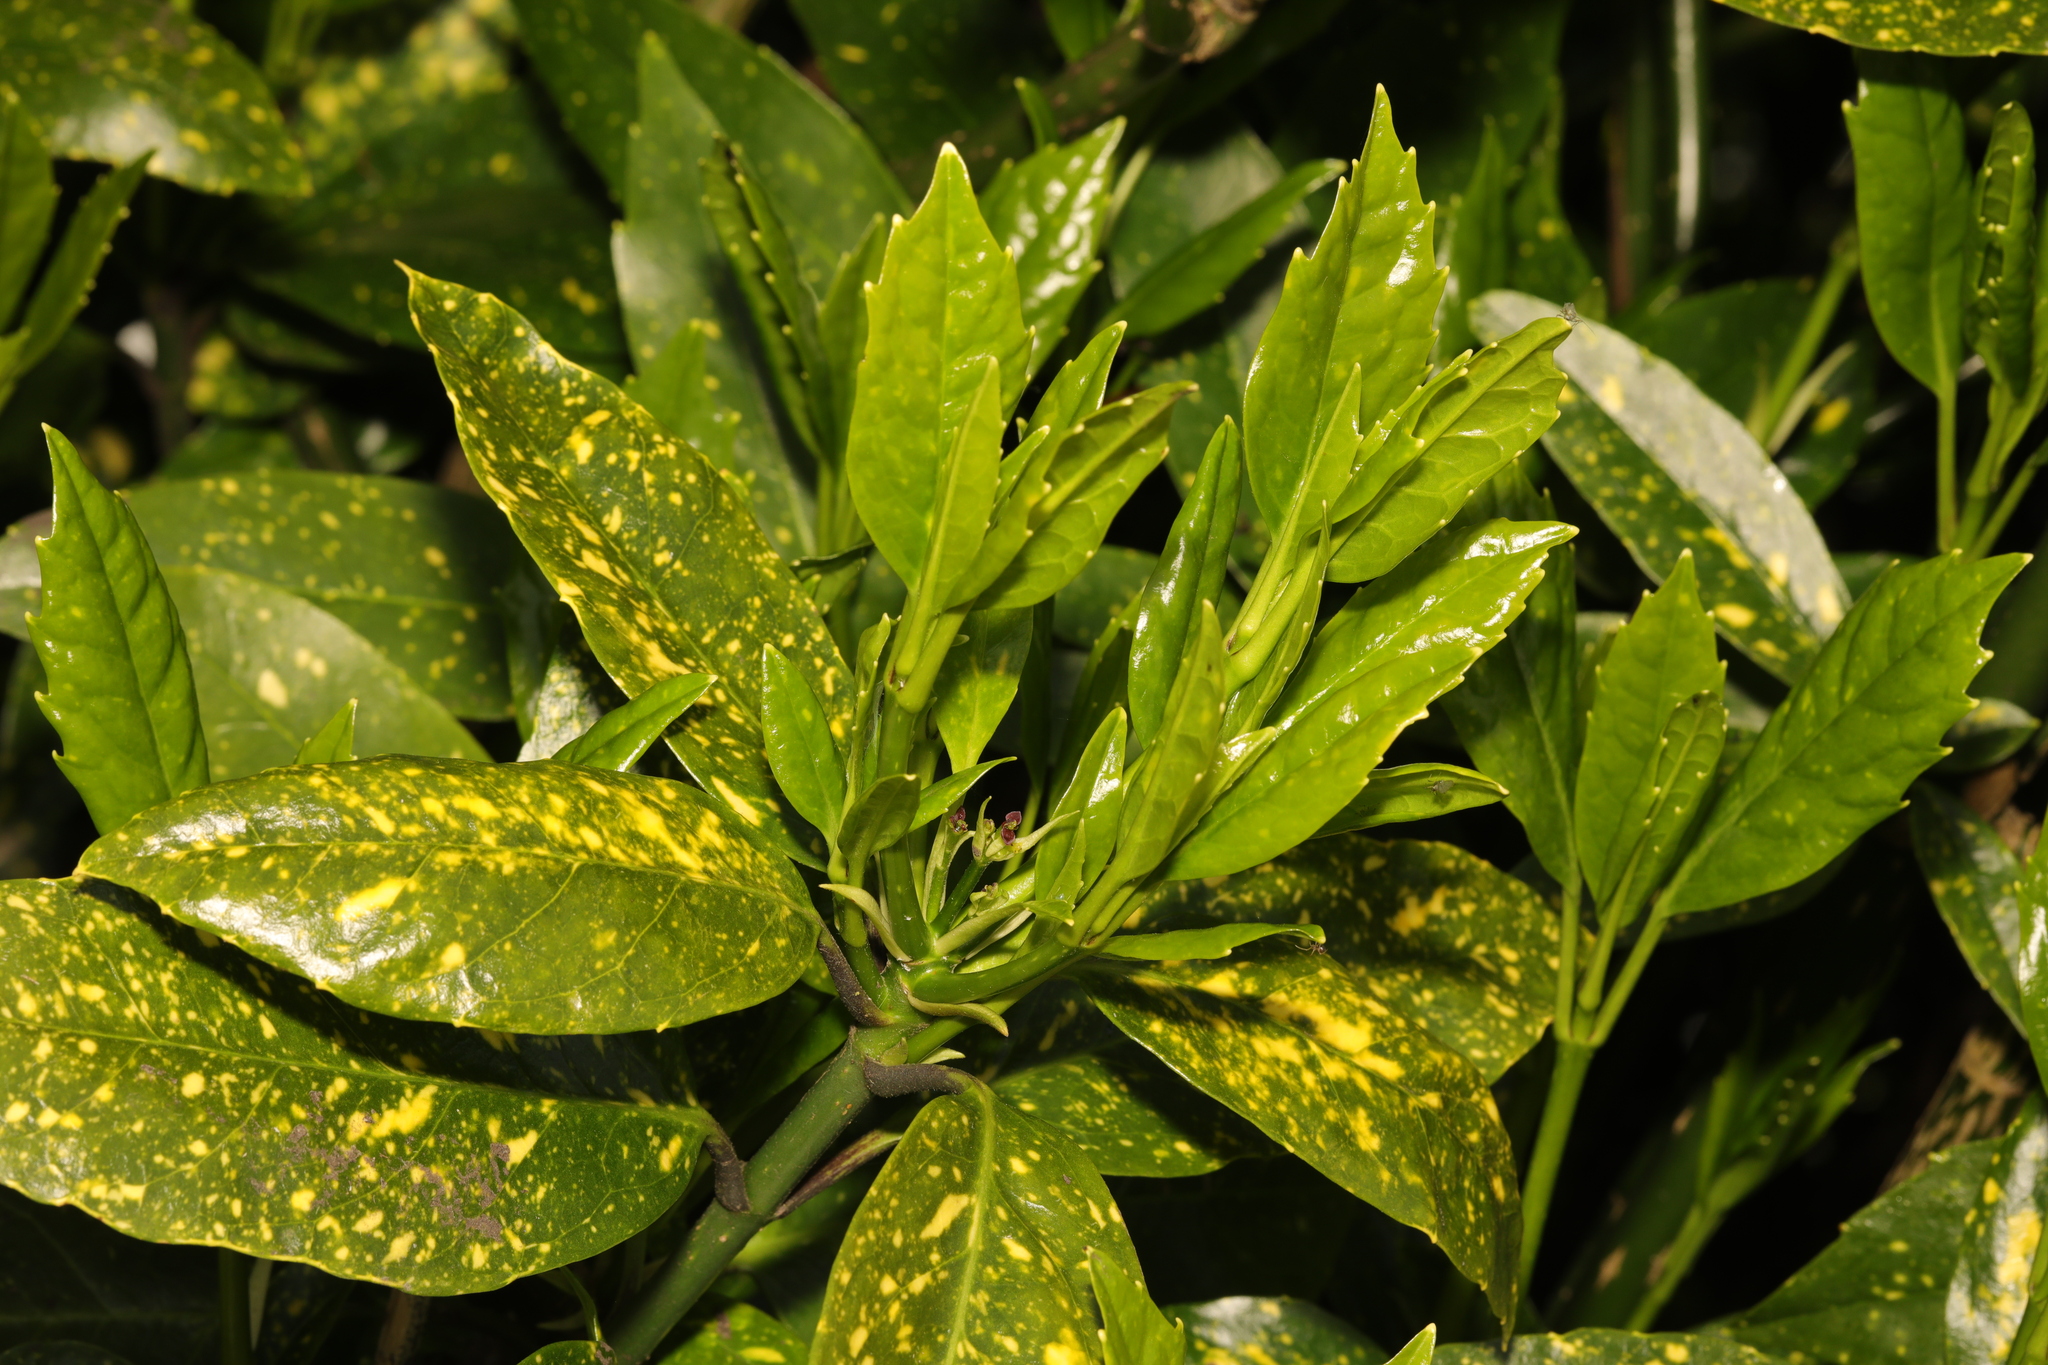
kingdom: Plantae
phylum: Tracheophyta
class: Magnoliopsida
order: Garryales
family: Garryaceae
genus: Aucuba
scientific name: Aucuba japonica
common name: Spotted-laurel
